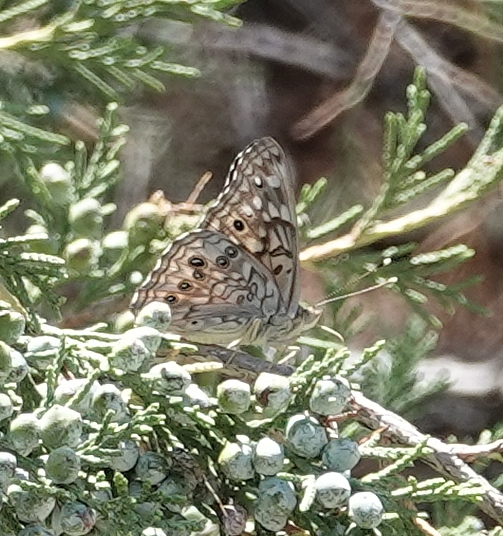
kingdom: Animalia
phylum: Arthropoda
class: Insecta
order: Lepidoptera
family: Nymphalidae
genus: Asterocampa
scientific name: Asterocampa celtis
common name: Hackberry emperor
